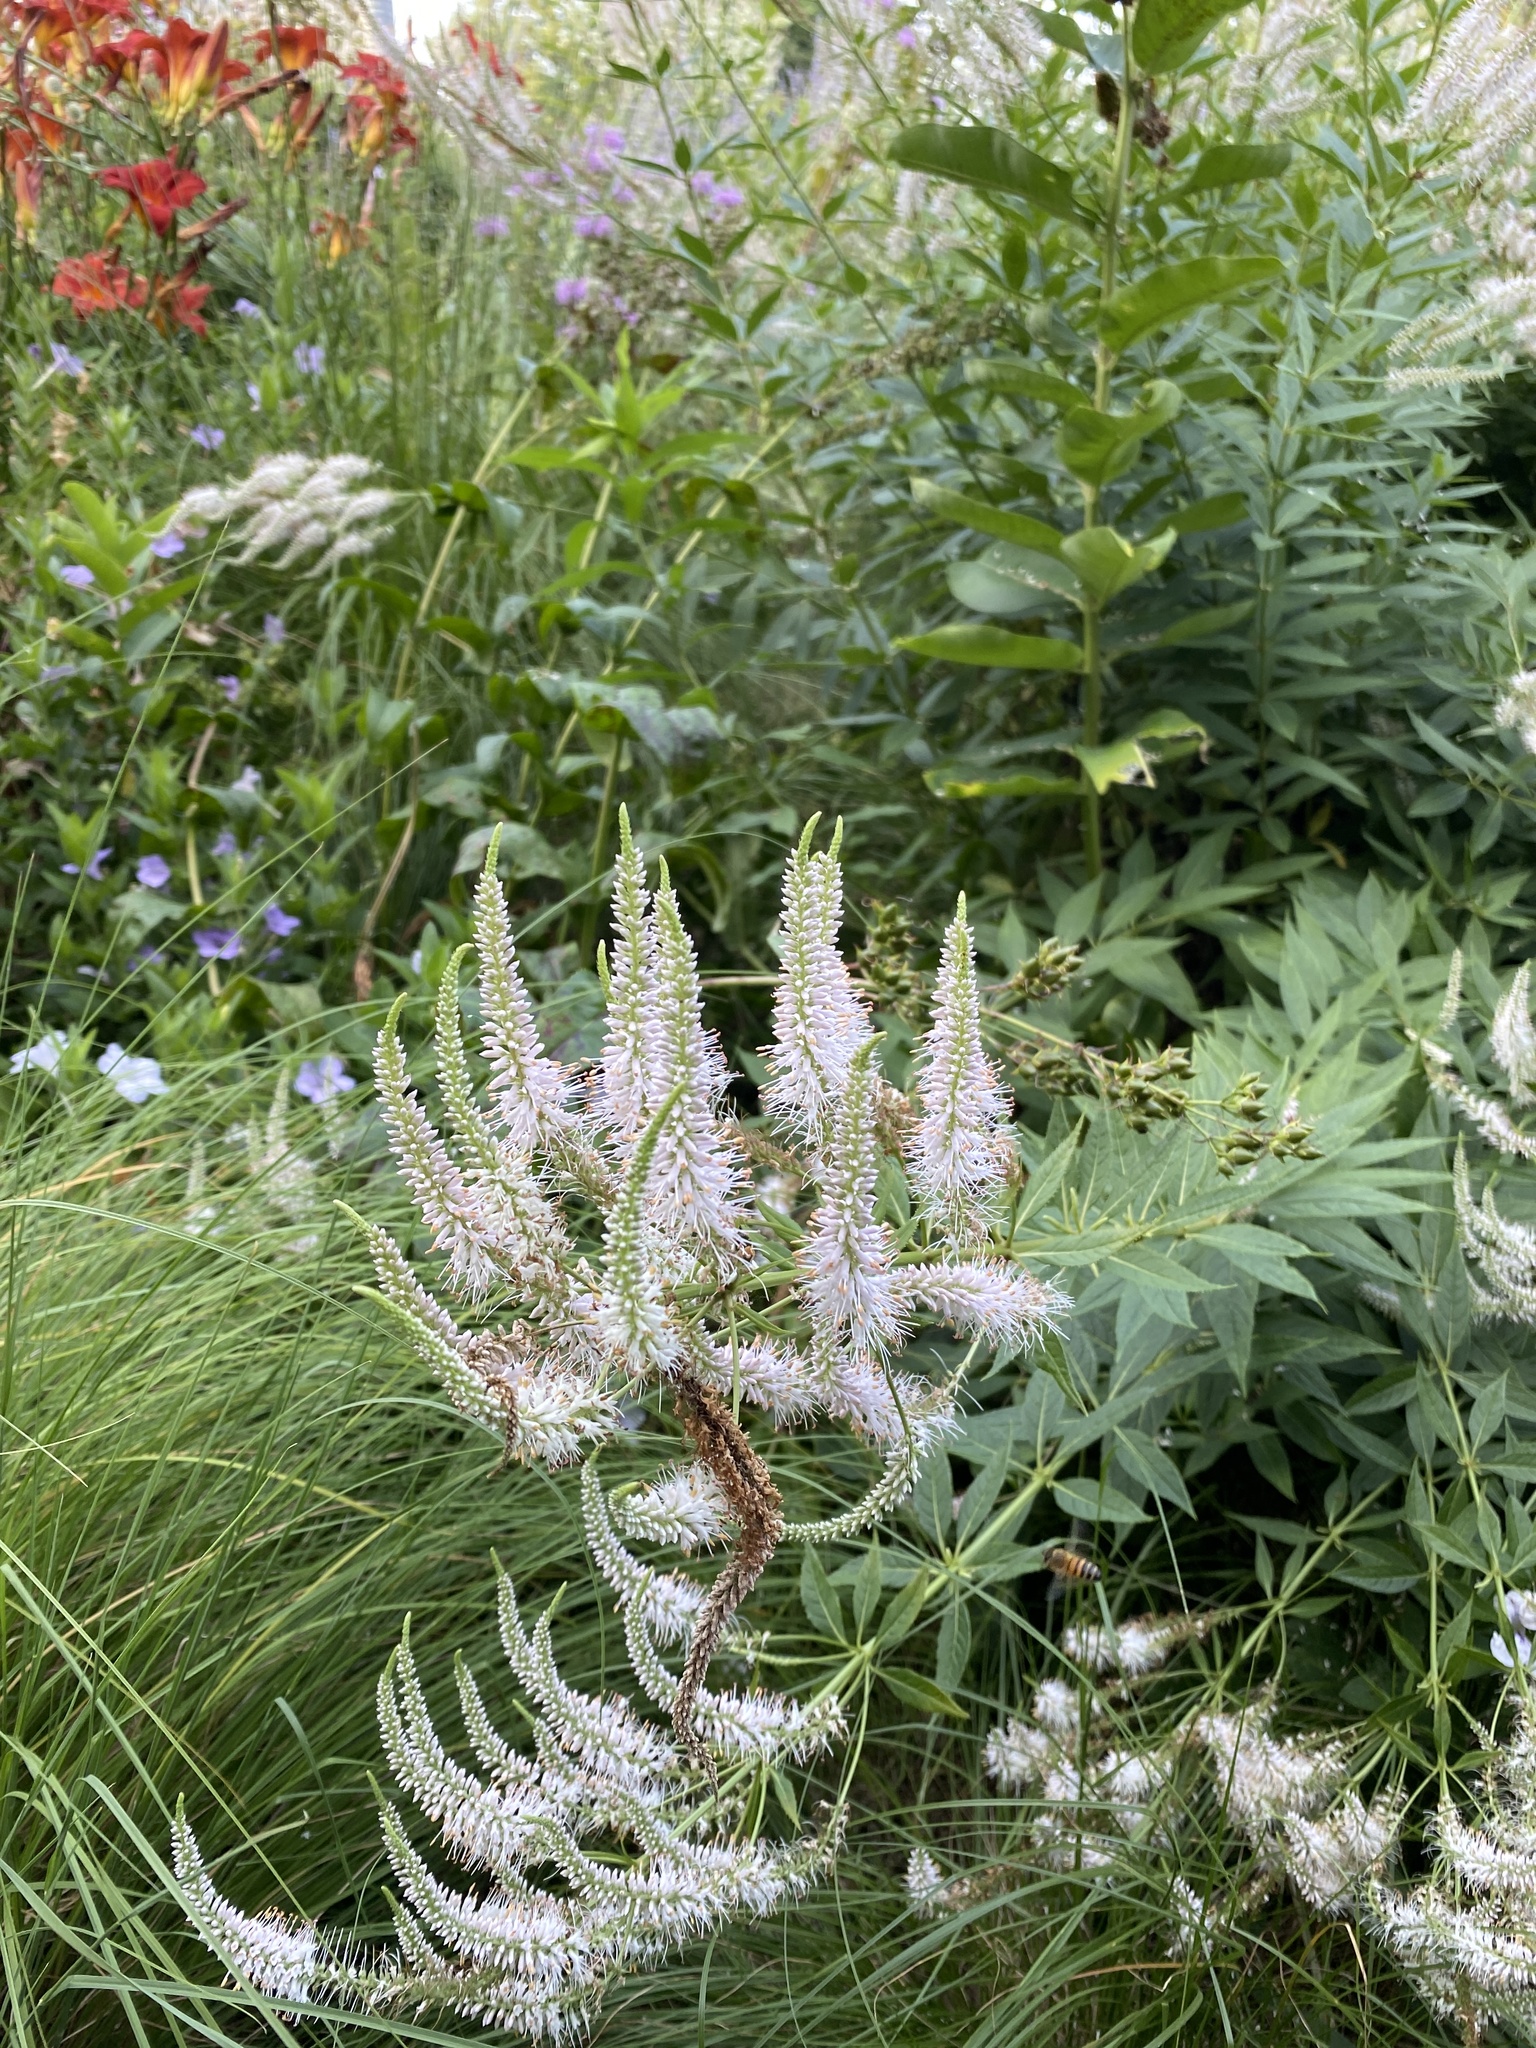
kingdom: Plantae
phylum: Tracheophyta
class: Magnoliopsida
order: Lamiales
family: Plantaginaceae
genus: Veronicastrum
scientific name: Veronicastrum virginicum
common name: Blackroot
